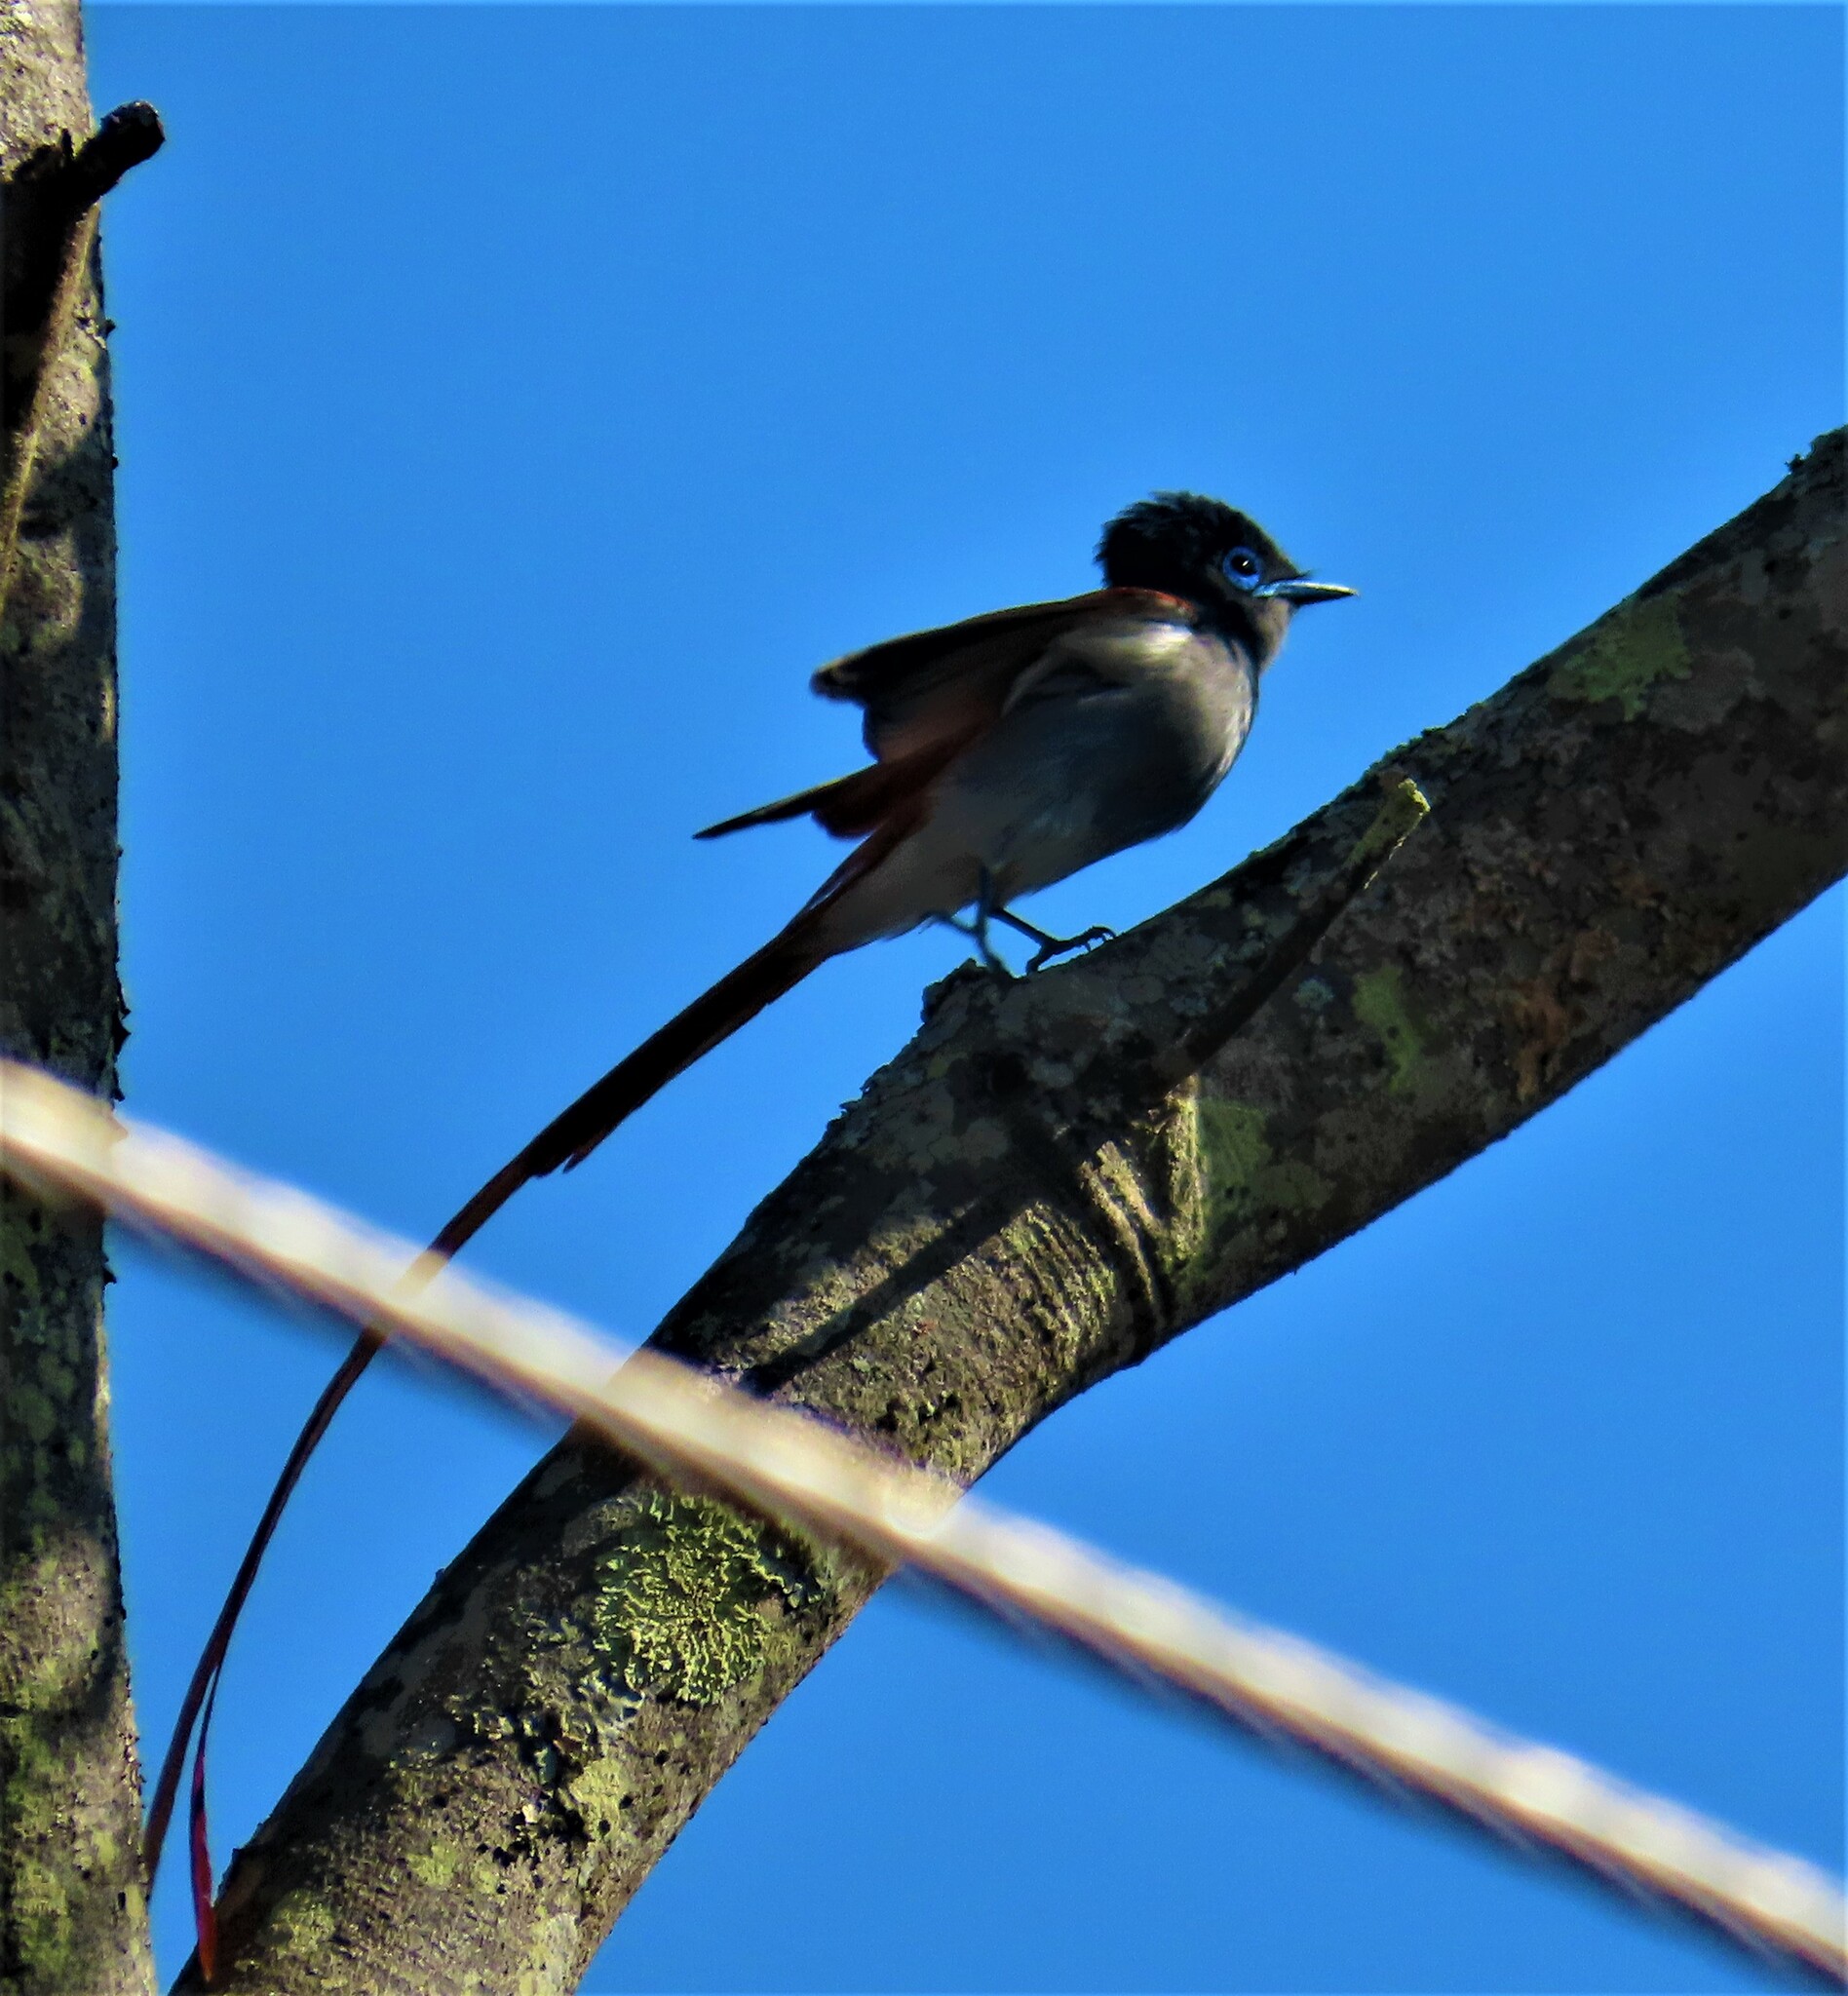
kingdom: Animalia
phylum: Chordata
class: Aves
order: Passeriformes
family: Monarchidae
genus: Terpsiphone
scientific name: Terpsiphone viridis
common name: African paradise flycatcher
